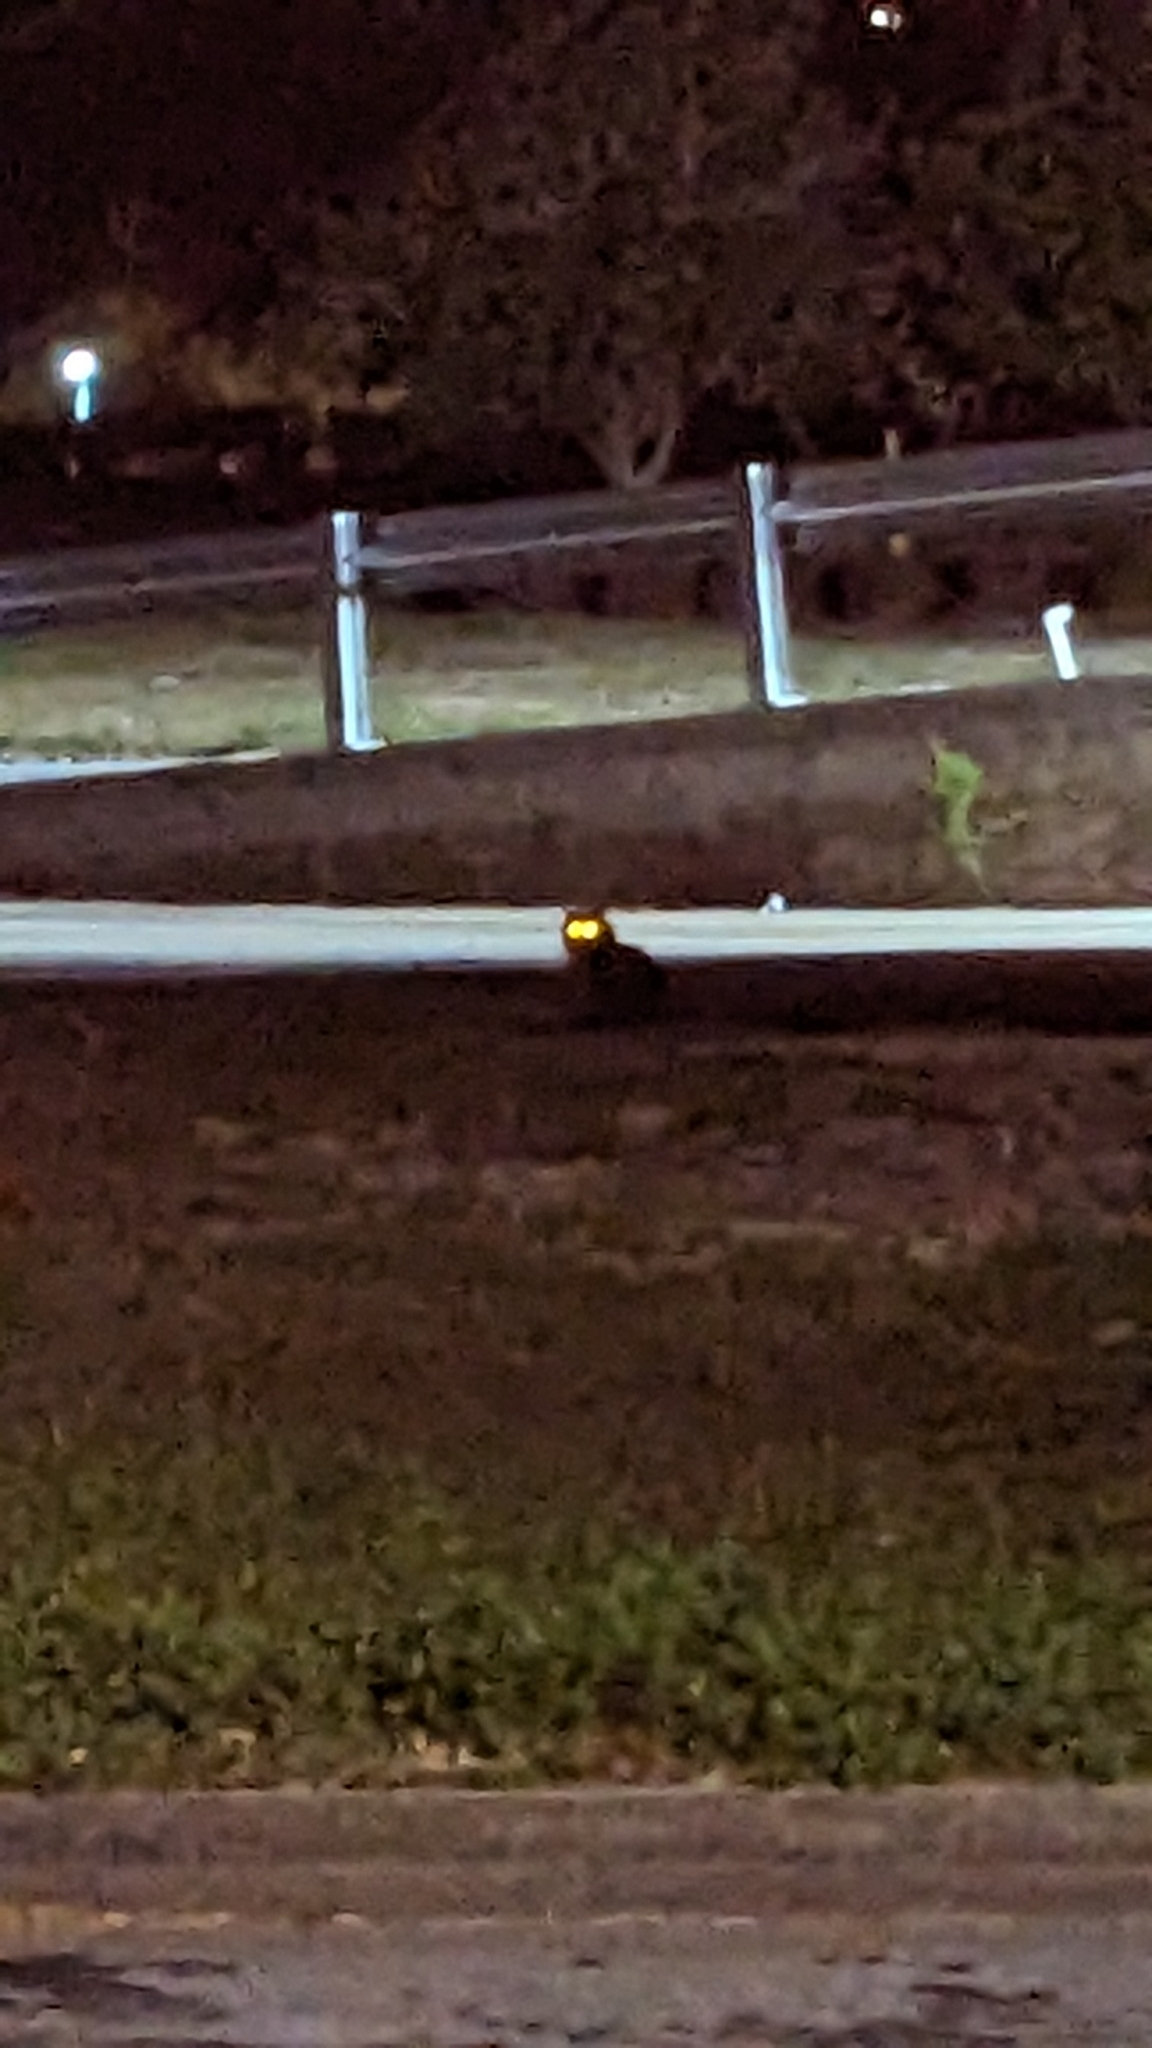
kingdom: Animalia
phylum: Chordata
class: Mammalia
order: Carnivora
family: Felidae
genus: Felis
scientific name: Felis catus
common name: Domestic cat
